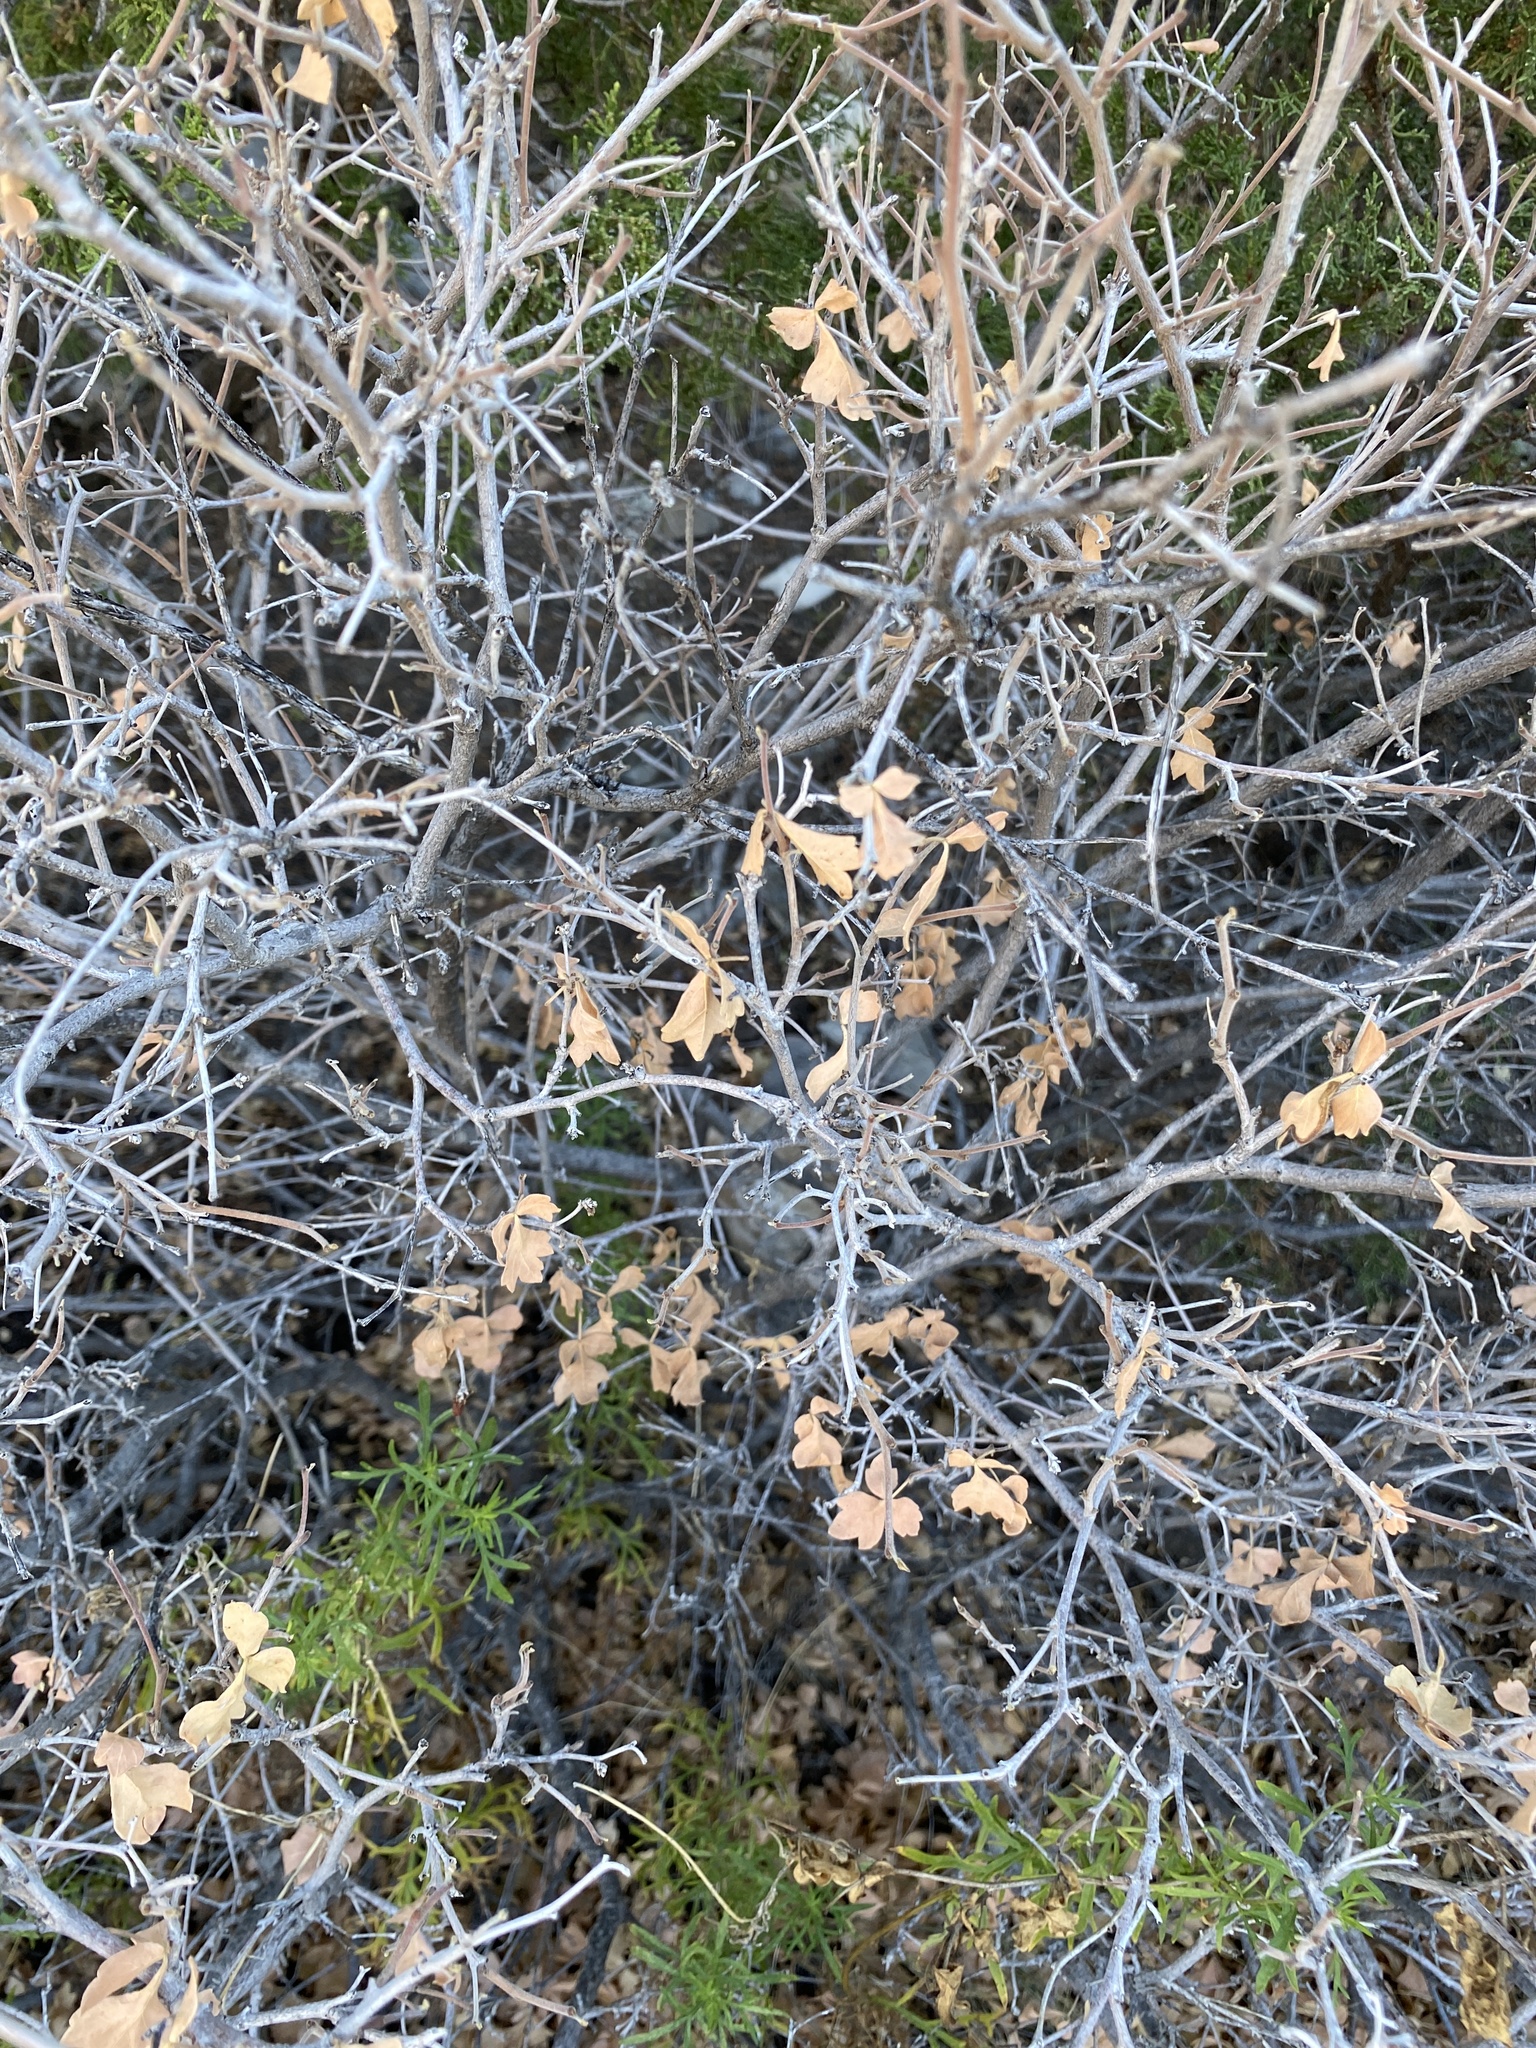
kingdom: Plantae
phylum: Tracheophyta
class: Magnoliopsida
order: Sapindales
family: Anacardiaceae
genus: Rhus
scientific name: Rhus aromatica
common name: Aromatic sumac
